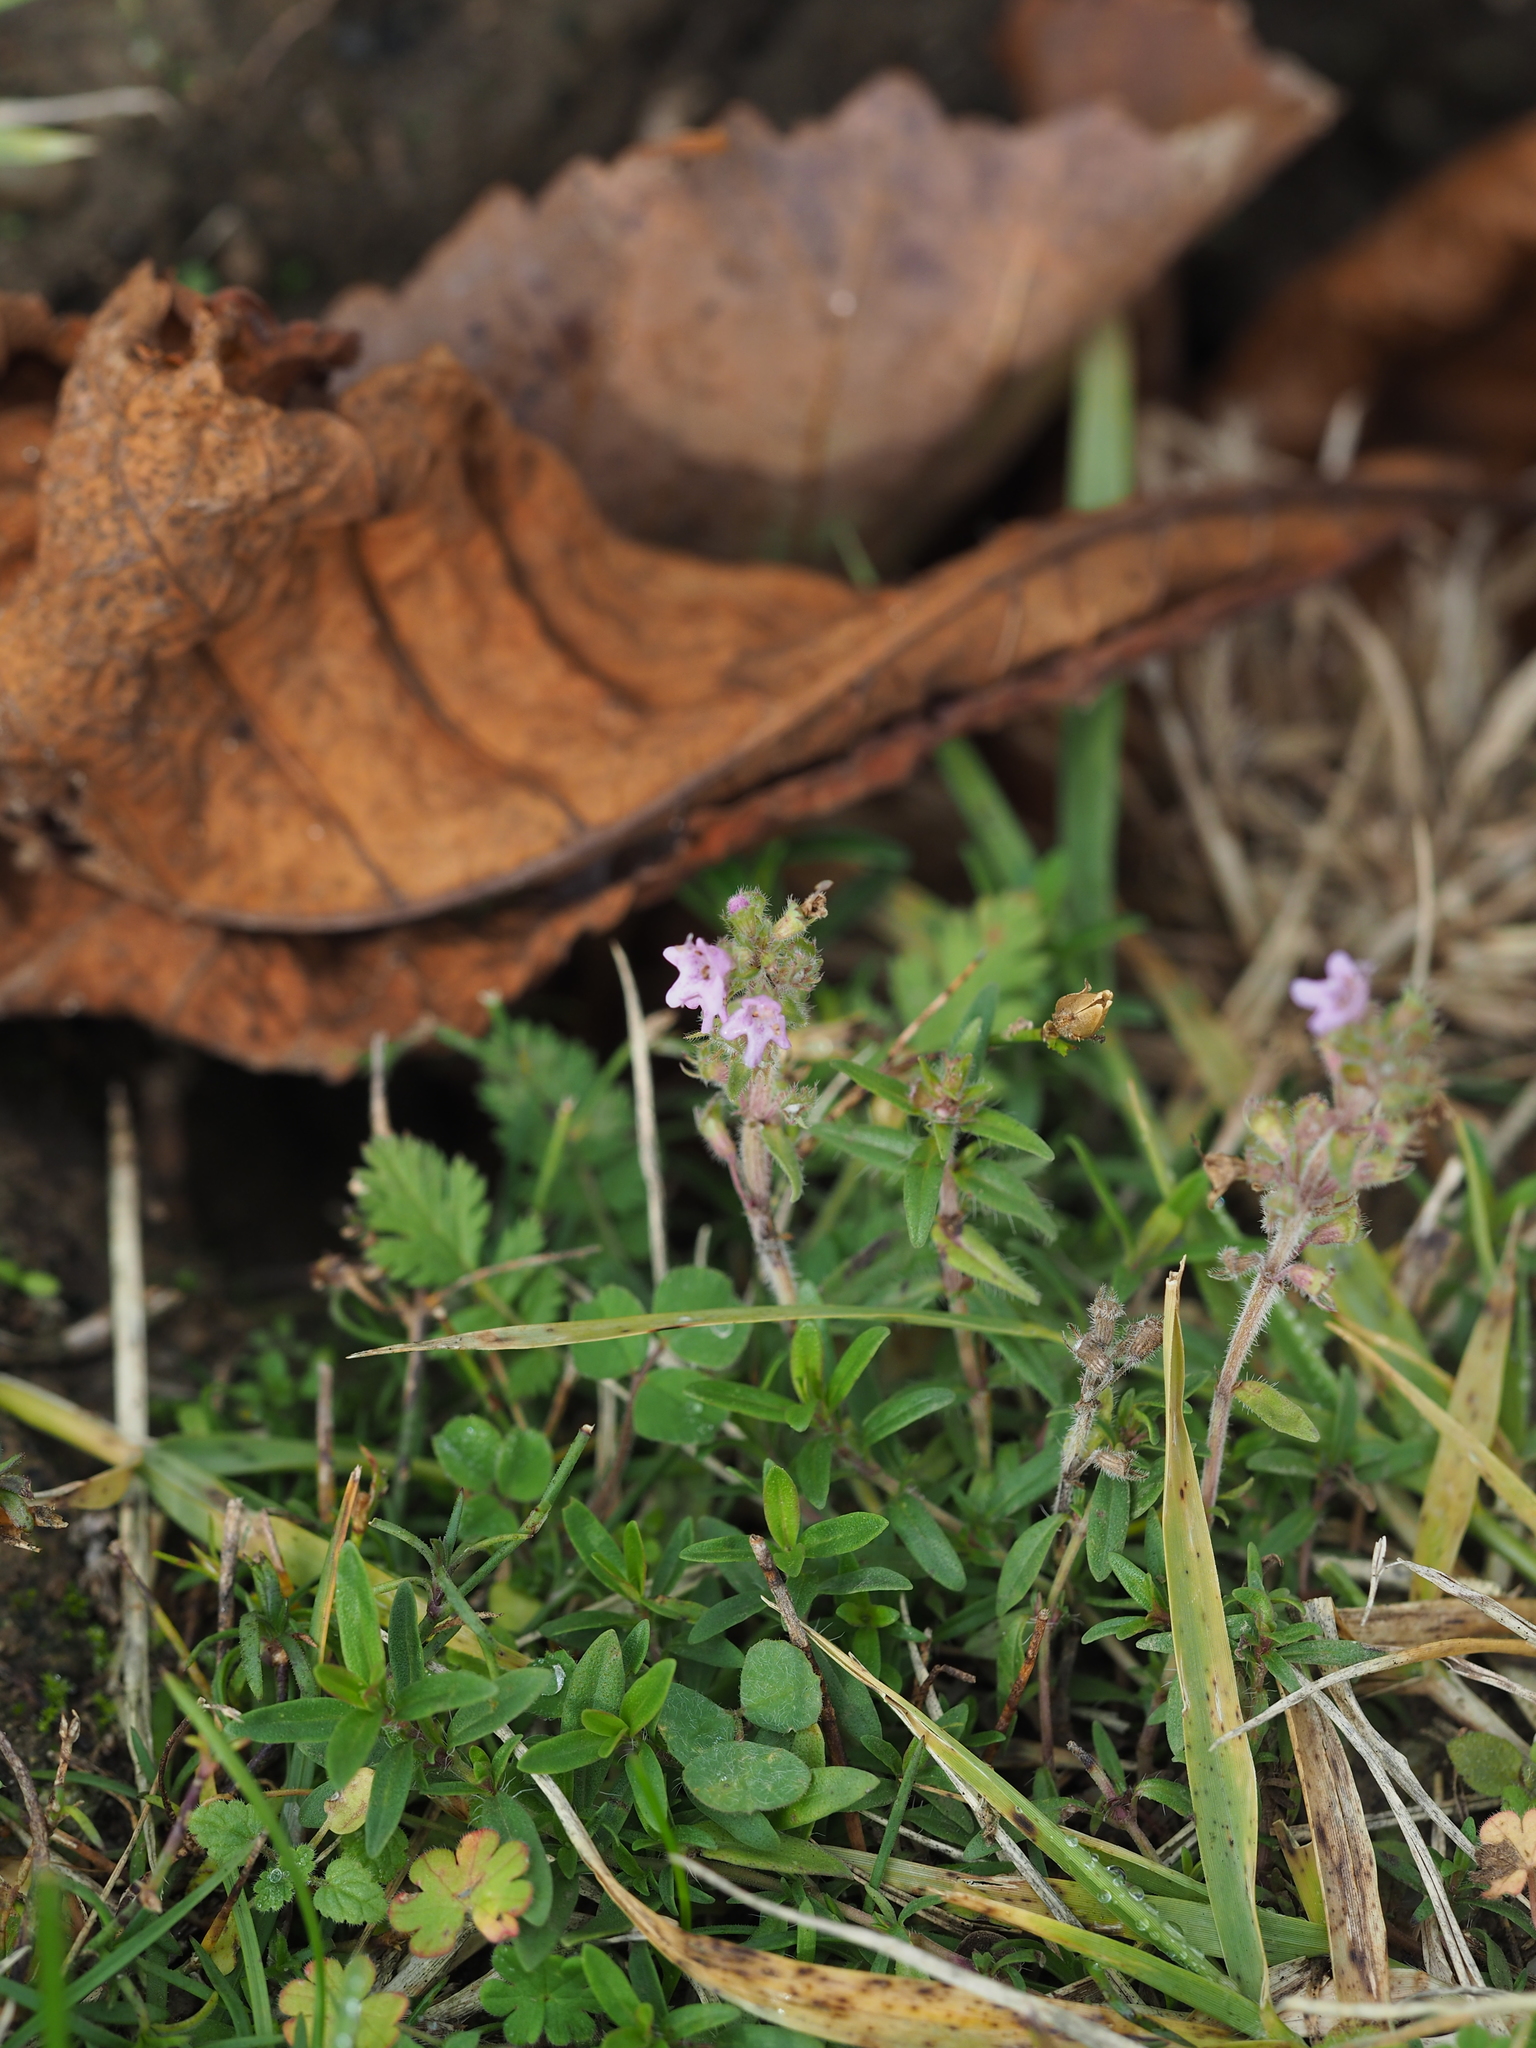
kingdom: Plantae
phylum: Tracheophyta
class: Magnoliopsida
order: Lamiales
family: Lamiaceae
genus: Thymus
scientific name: Thymus odoratissimus
